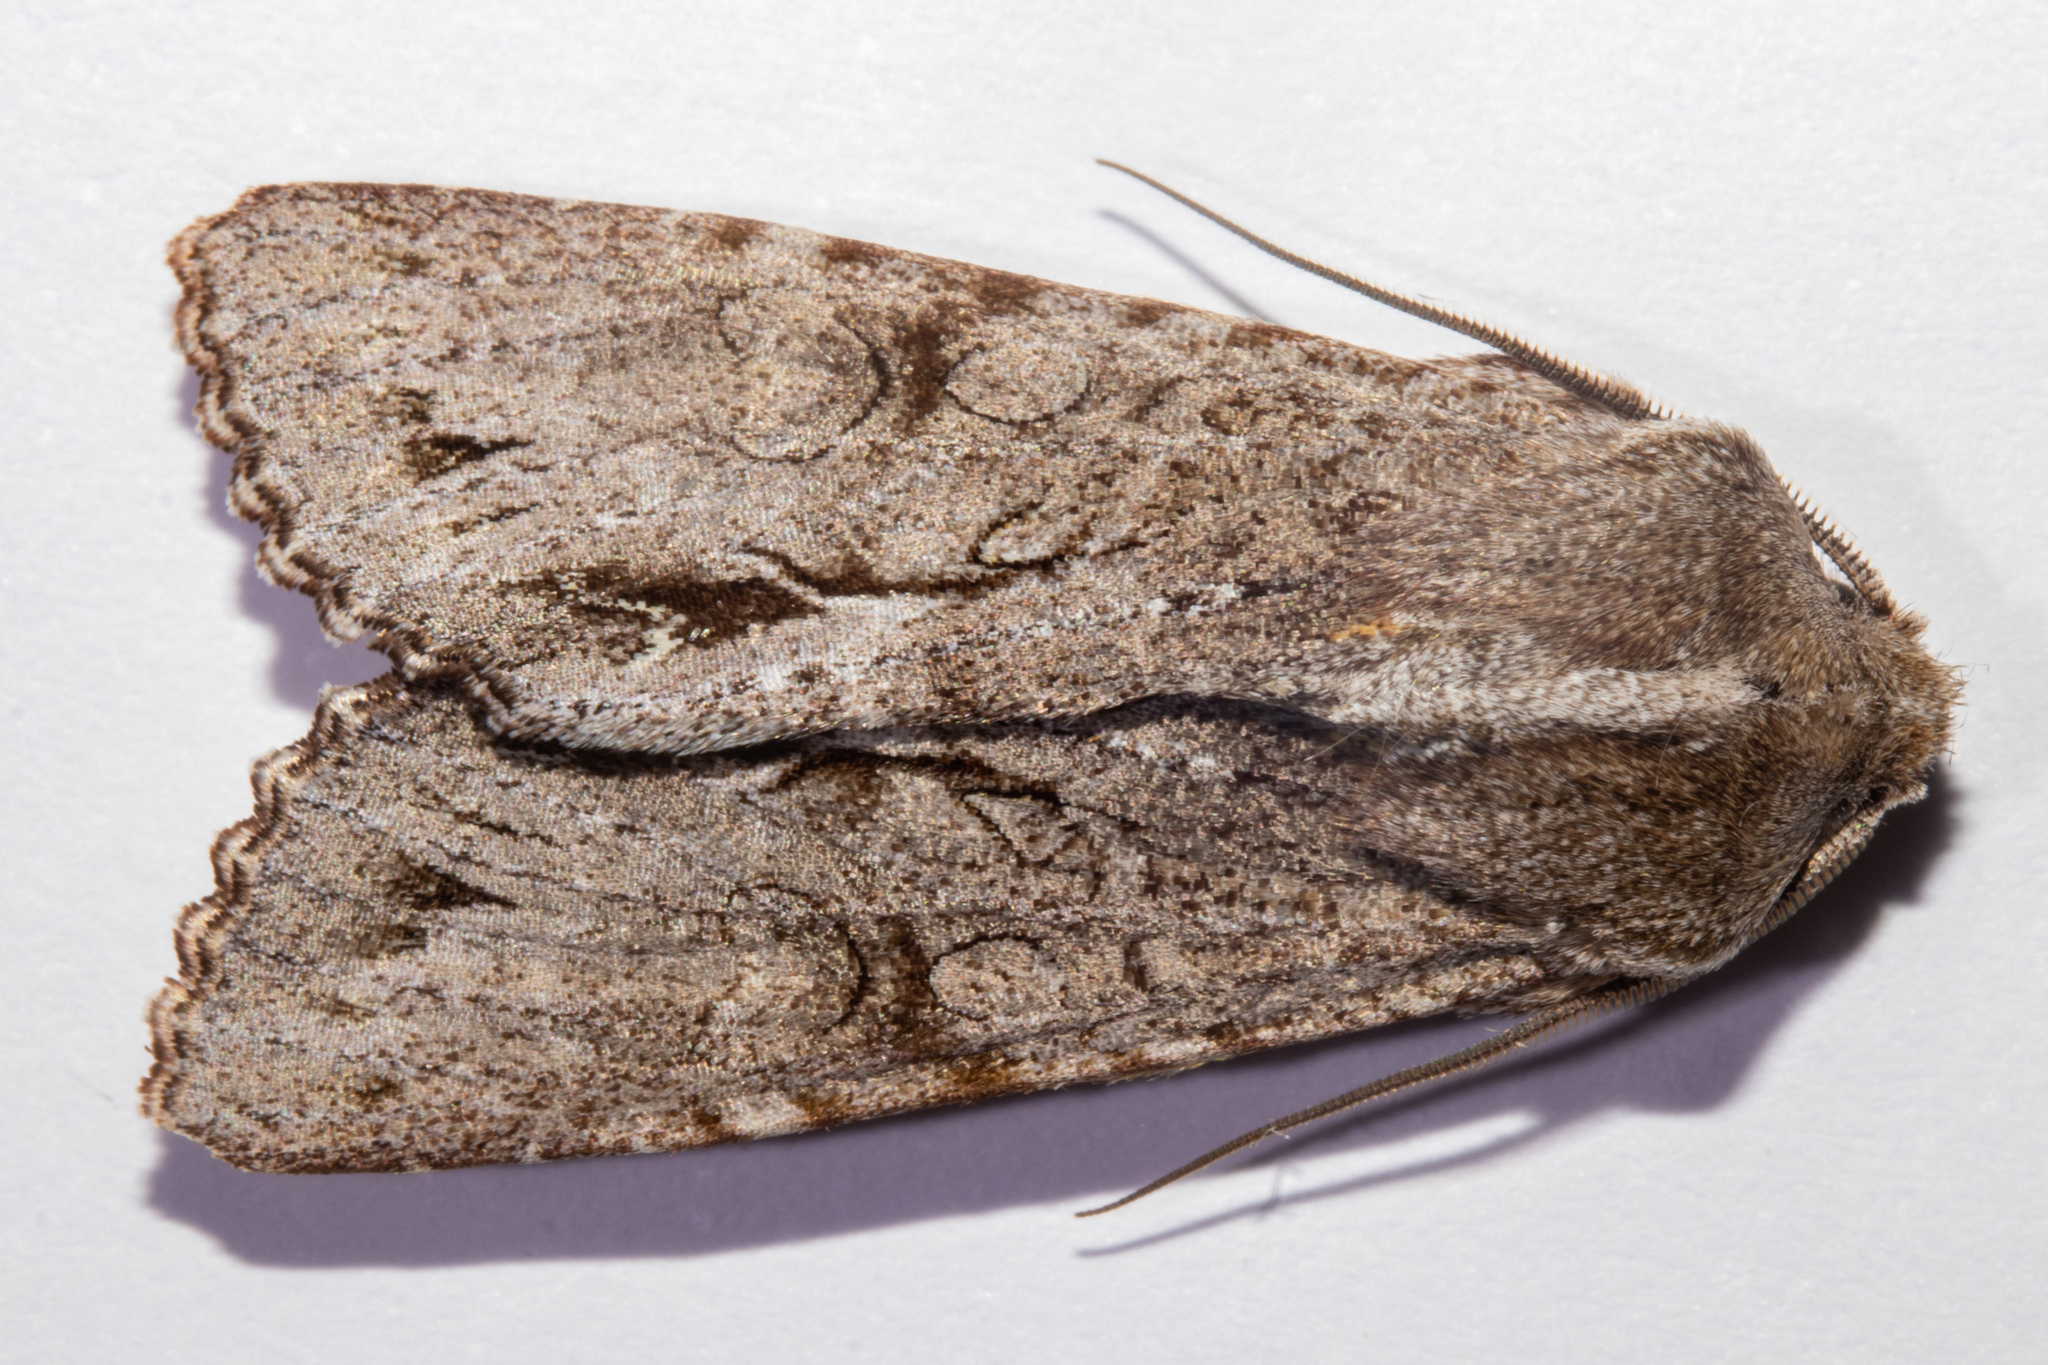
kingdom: Animalia
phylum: Arthropoda
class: Insecta
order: Lepidoptera
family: Noctuidae
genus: Ichneutica
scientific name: Ichneutica
